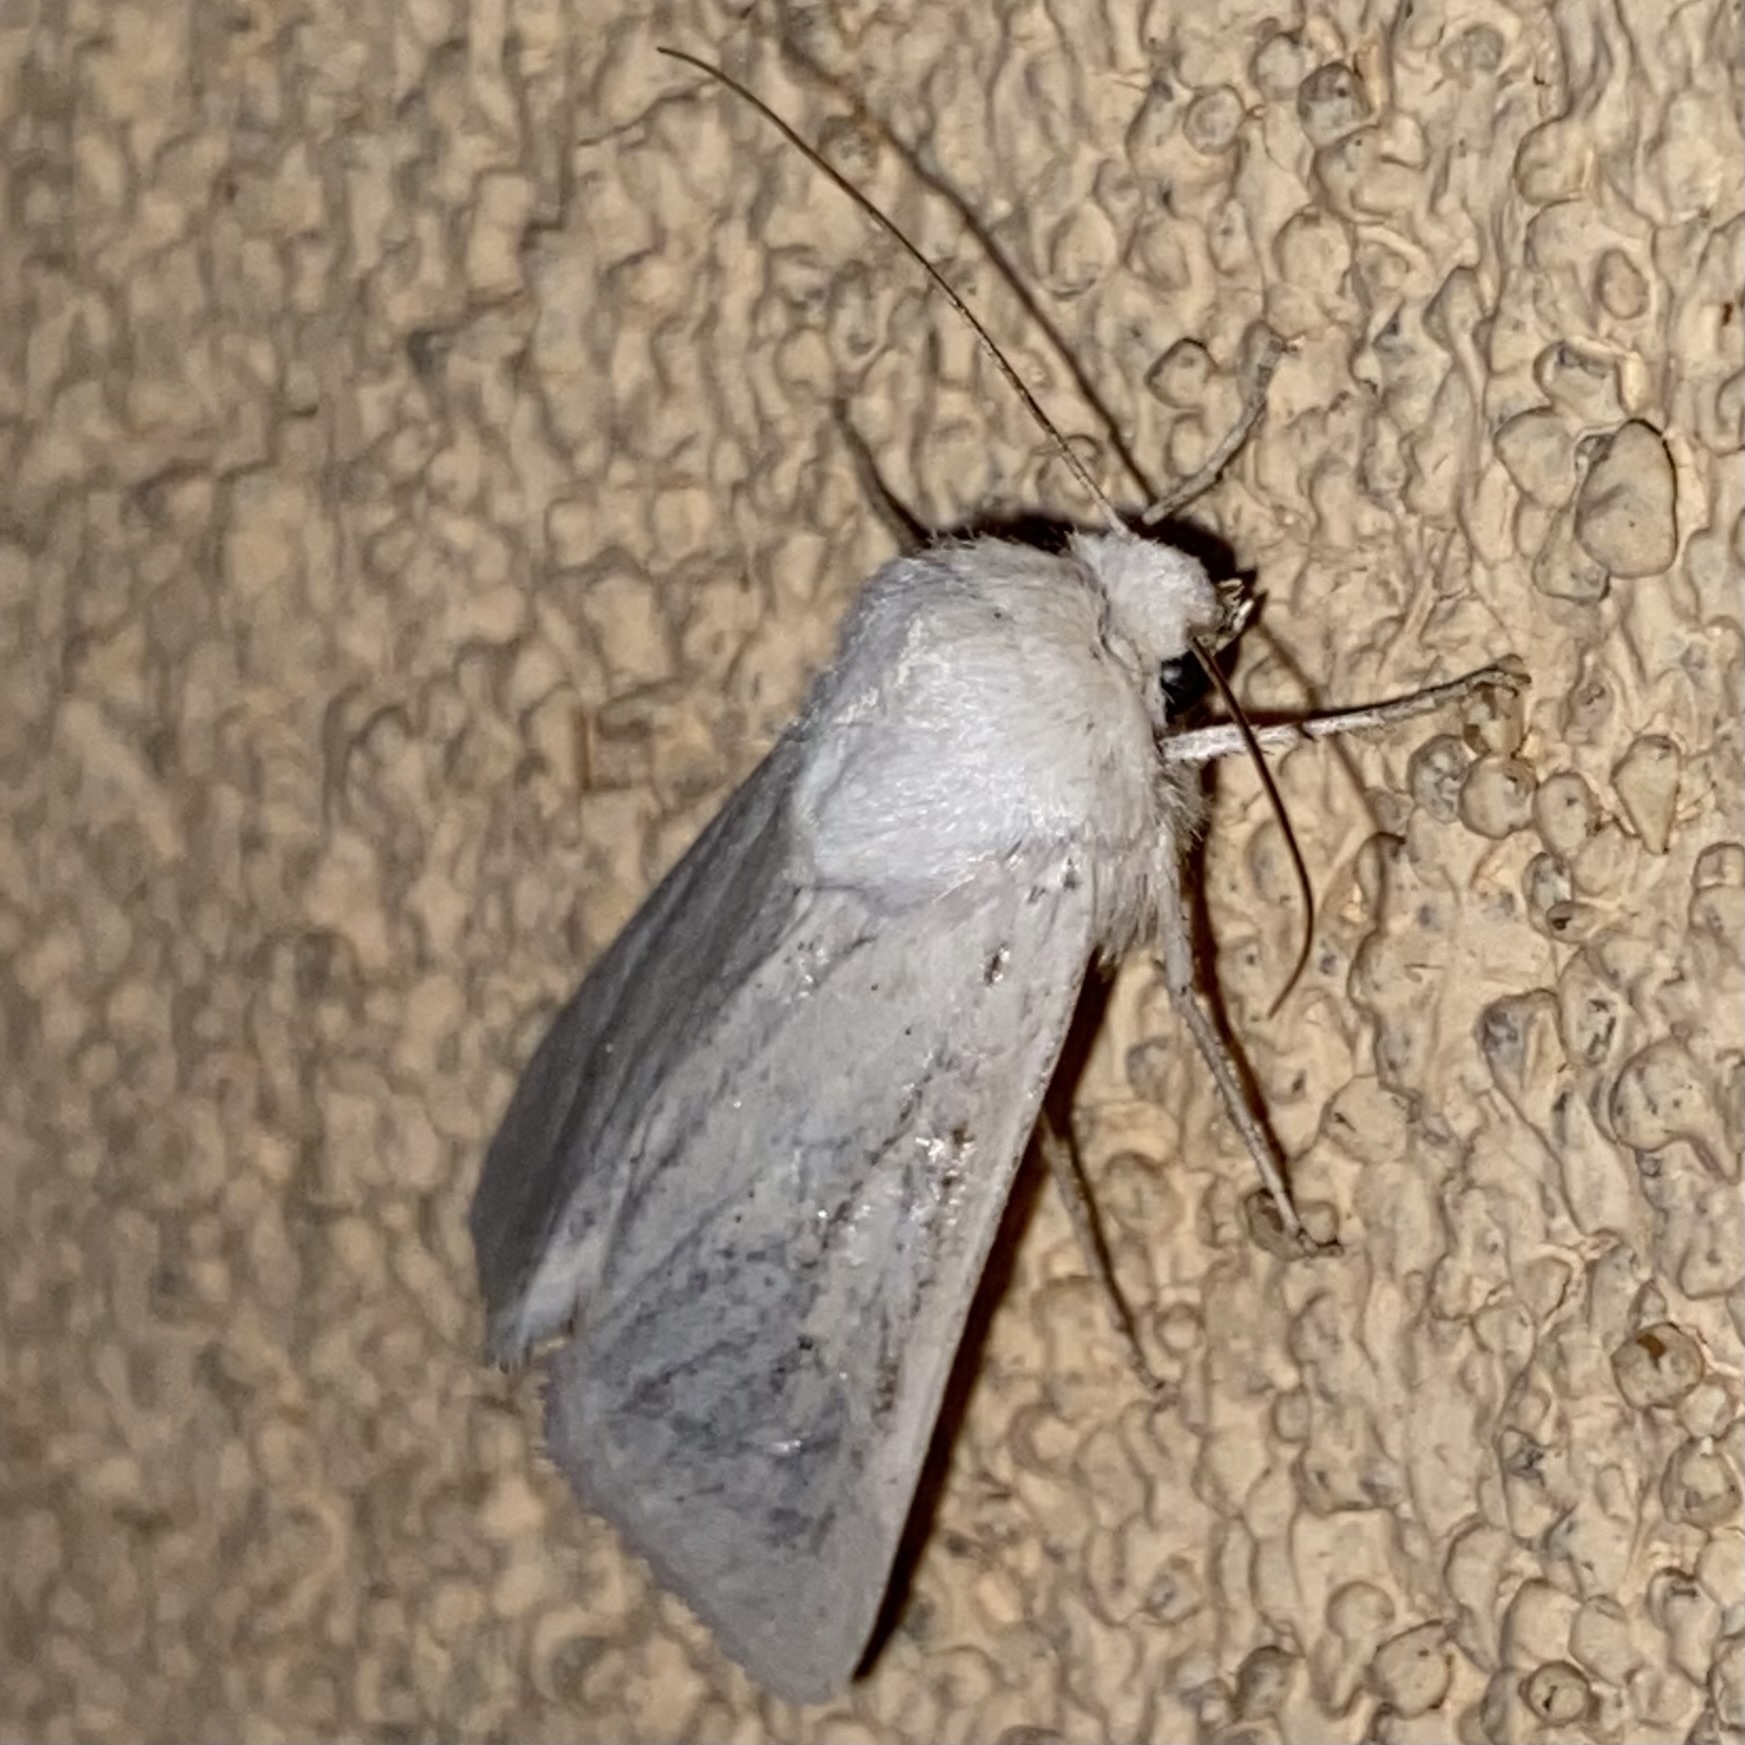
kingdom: Animalia
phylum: Arthropoda
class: Insecta
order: Lepidoptera
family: Noctuidae
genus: Protogygia
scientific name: Protogygia pallida
